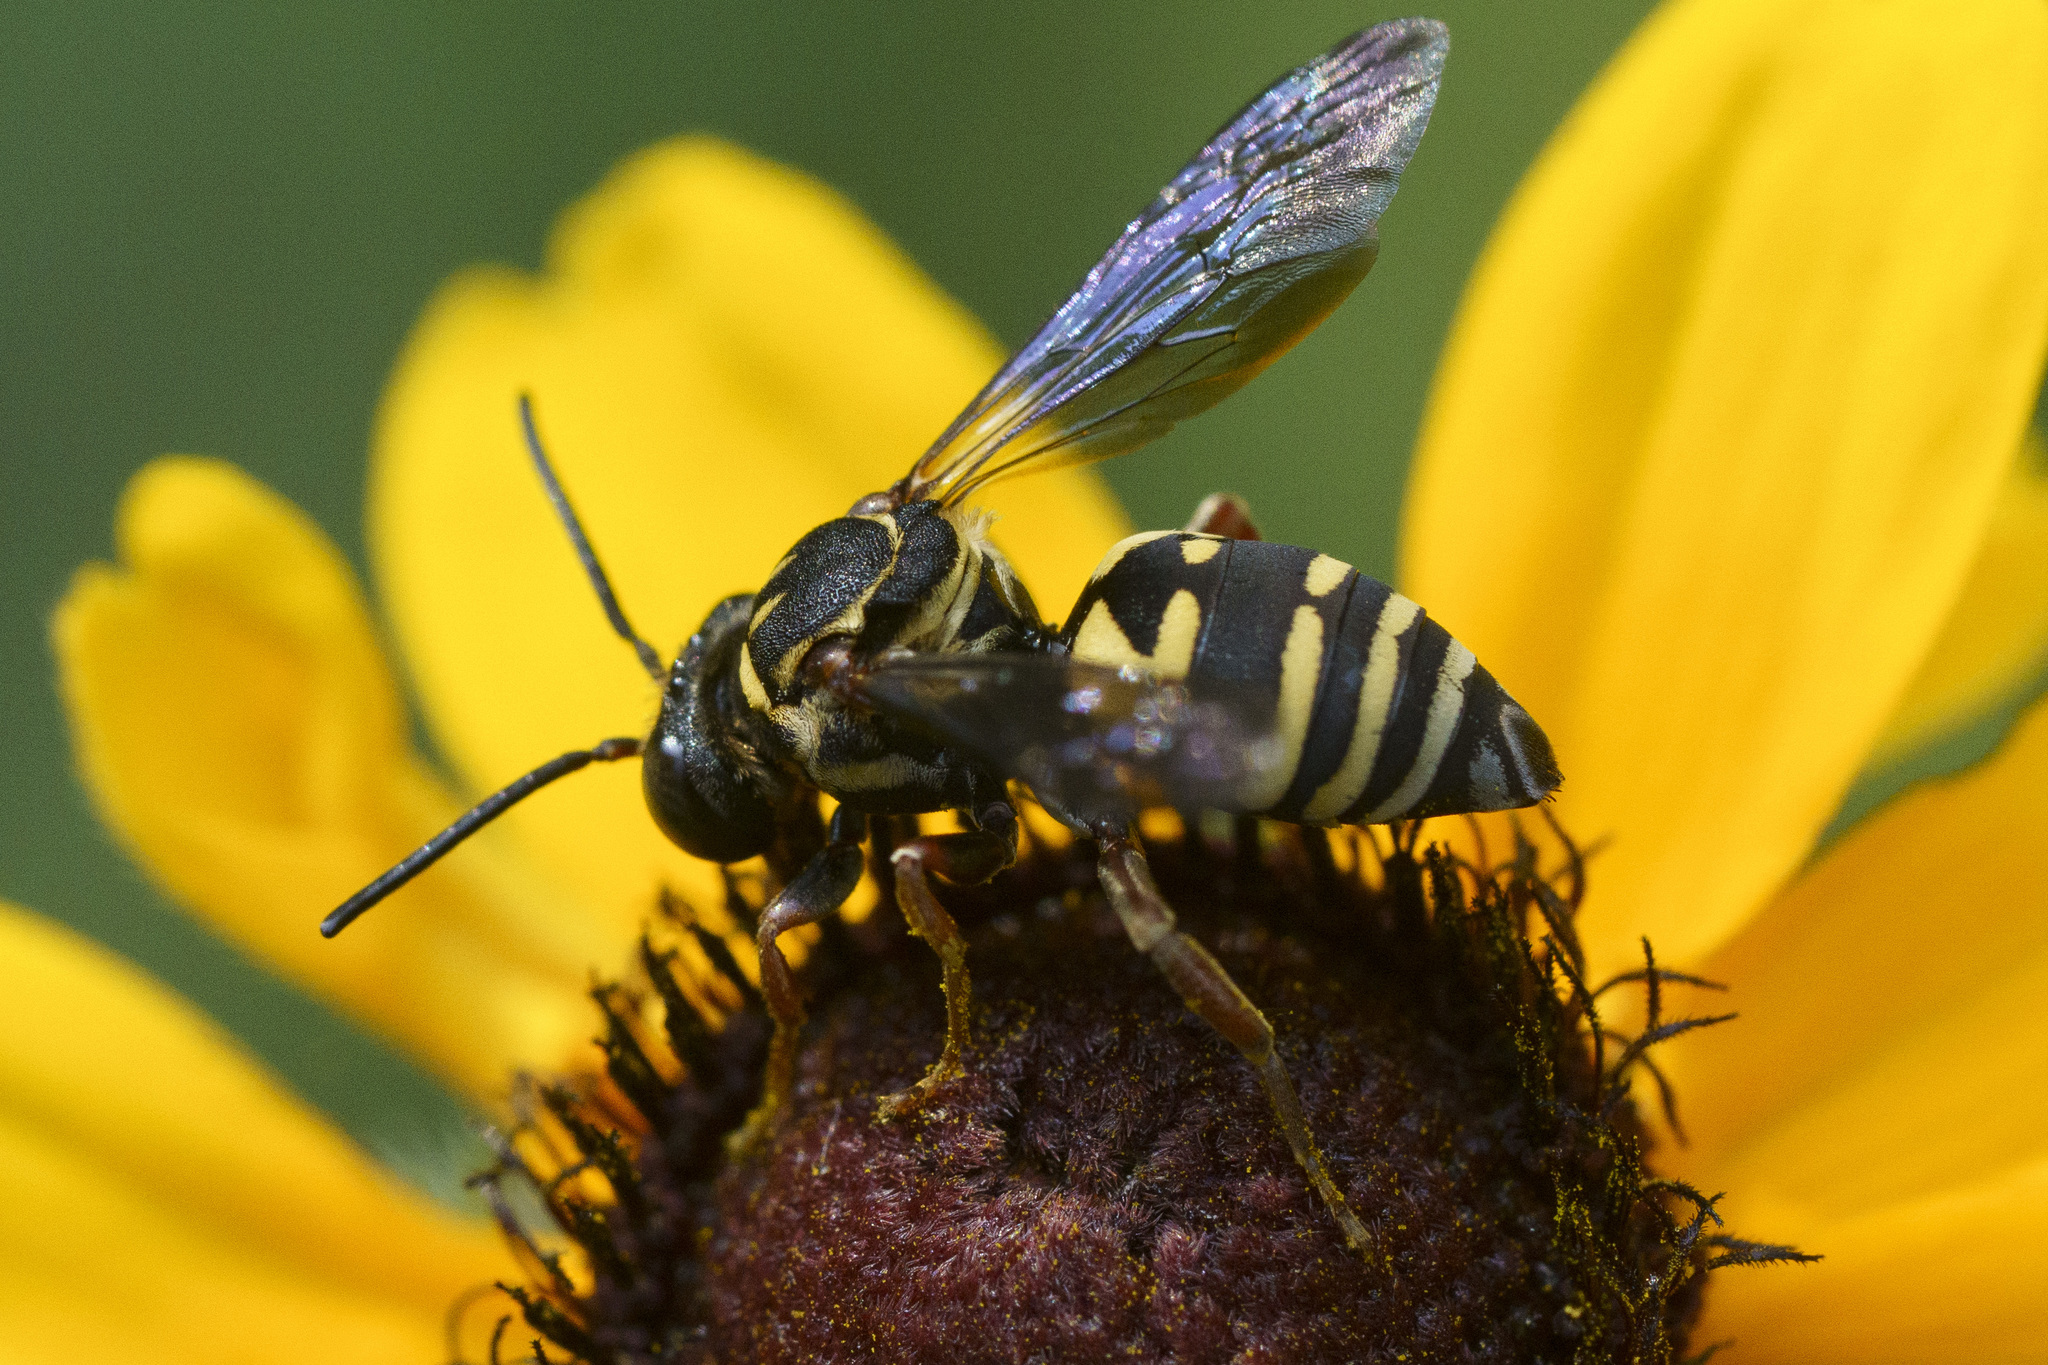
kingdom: Animalia
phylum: Arthropoda
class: Insecta
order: Hymenoptera
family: Apidae
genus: Triepeolus
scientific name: Triepeolus lunatus
